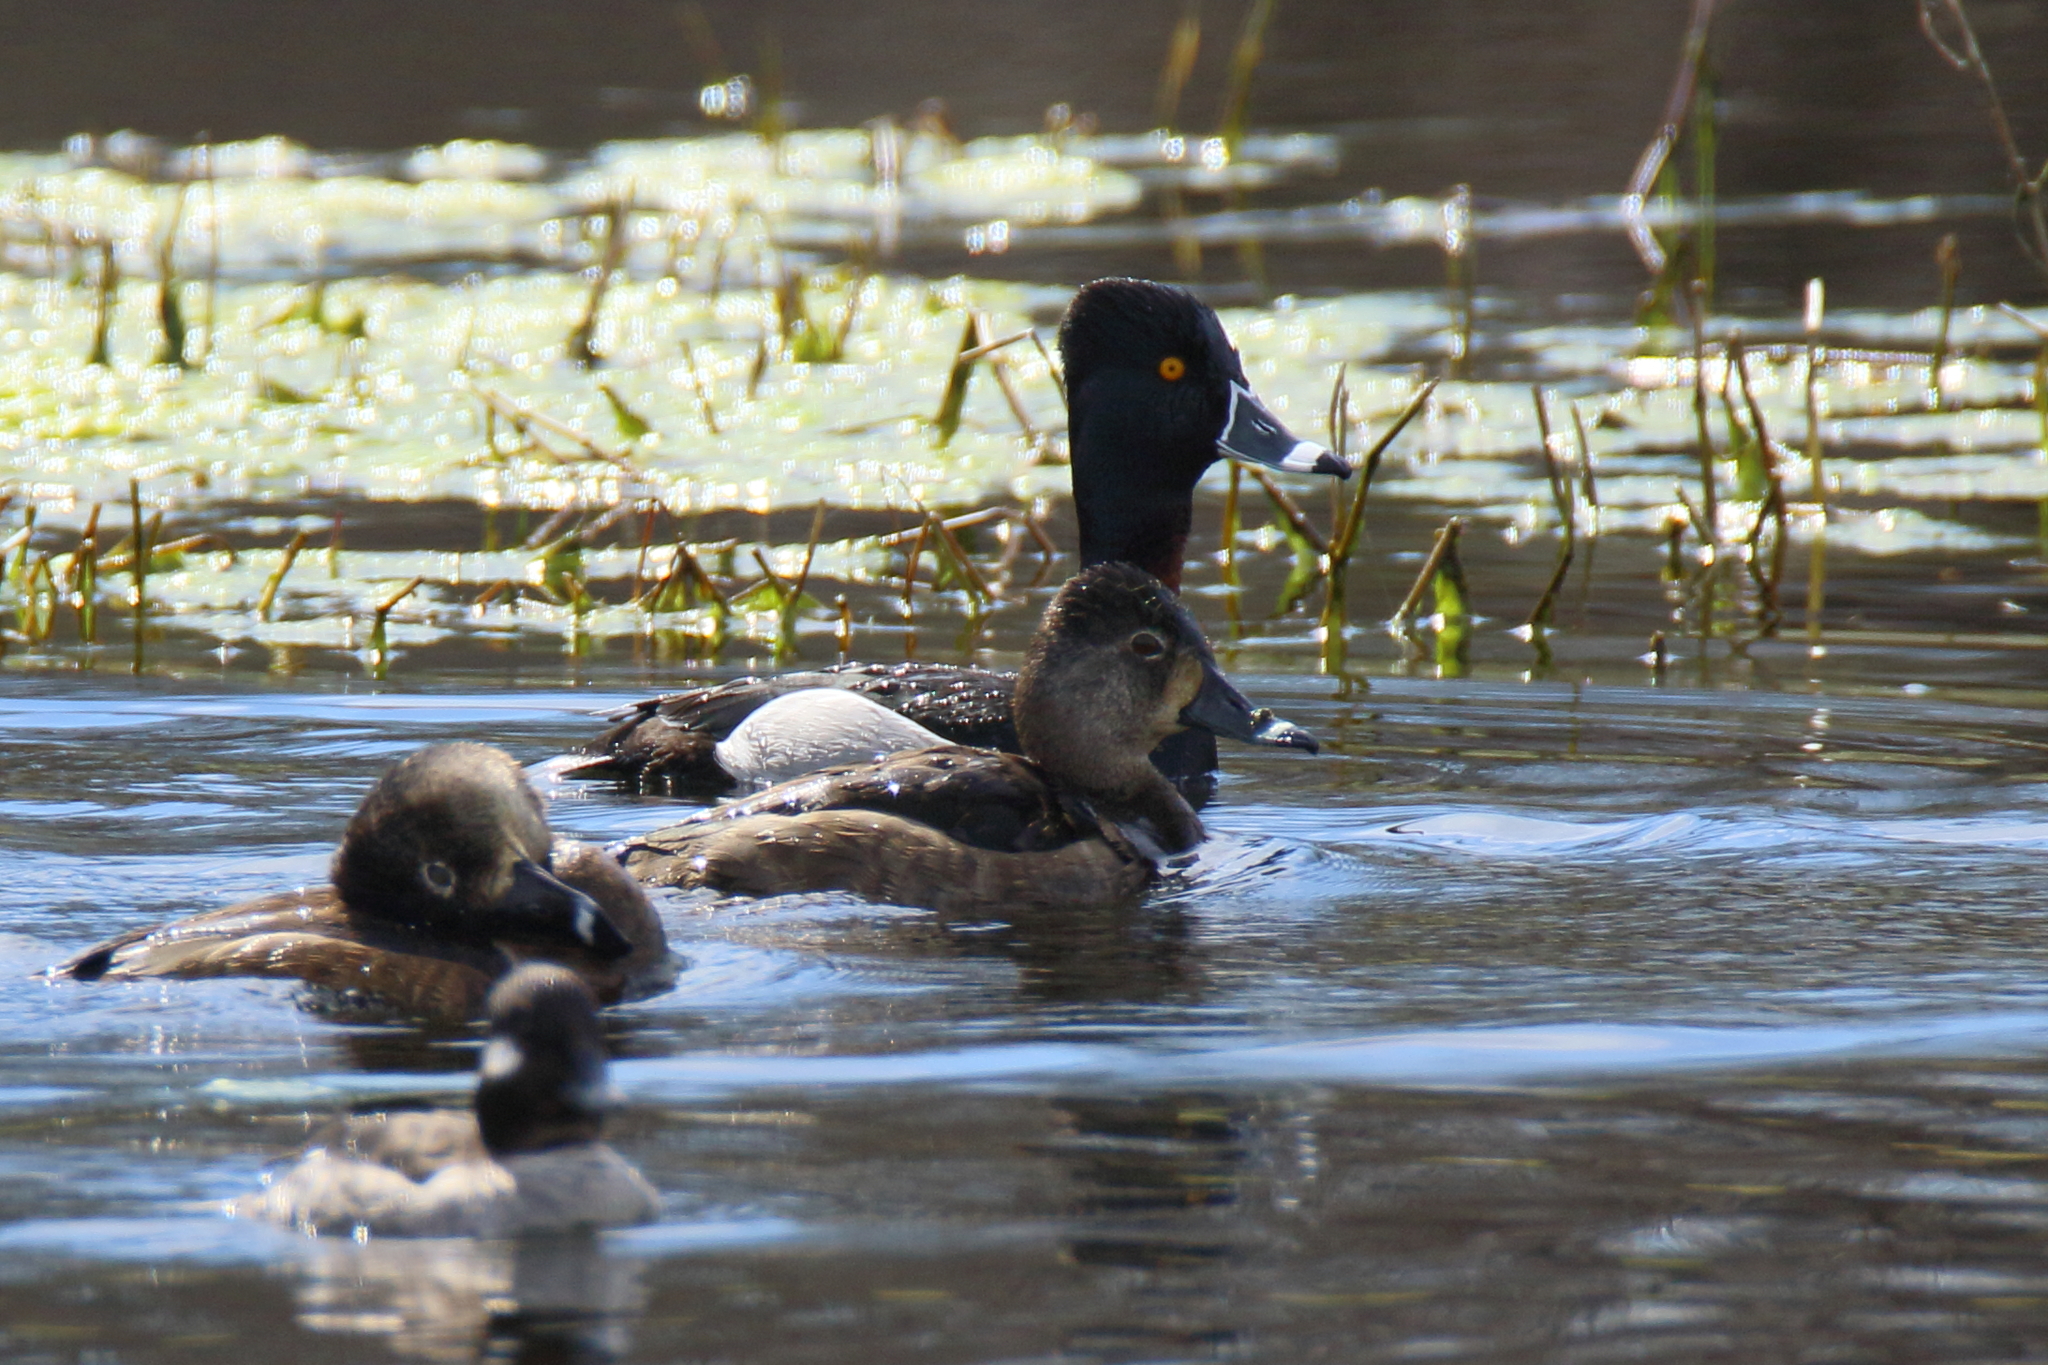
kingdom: Animalia
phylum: Chordata
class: Aves
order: Anseriformes
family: Anatidae
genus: Aythya
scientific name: Aythya collaris
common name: Ring-necked duck
